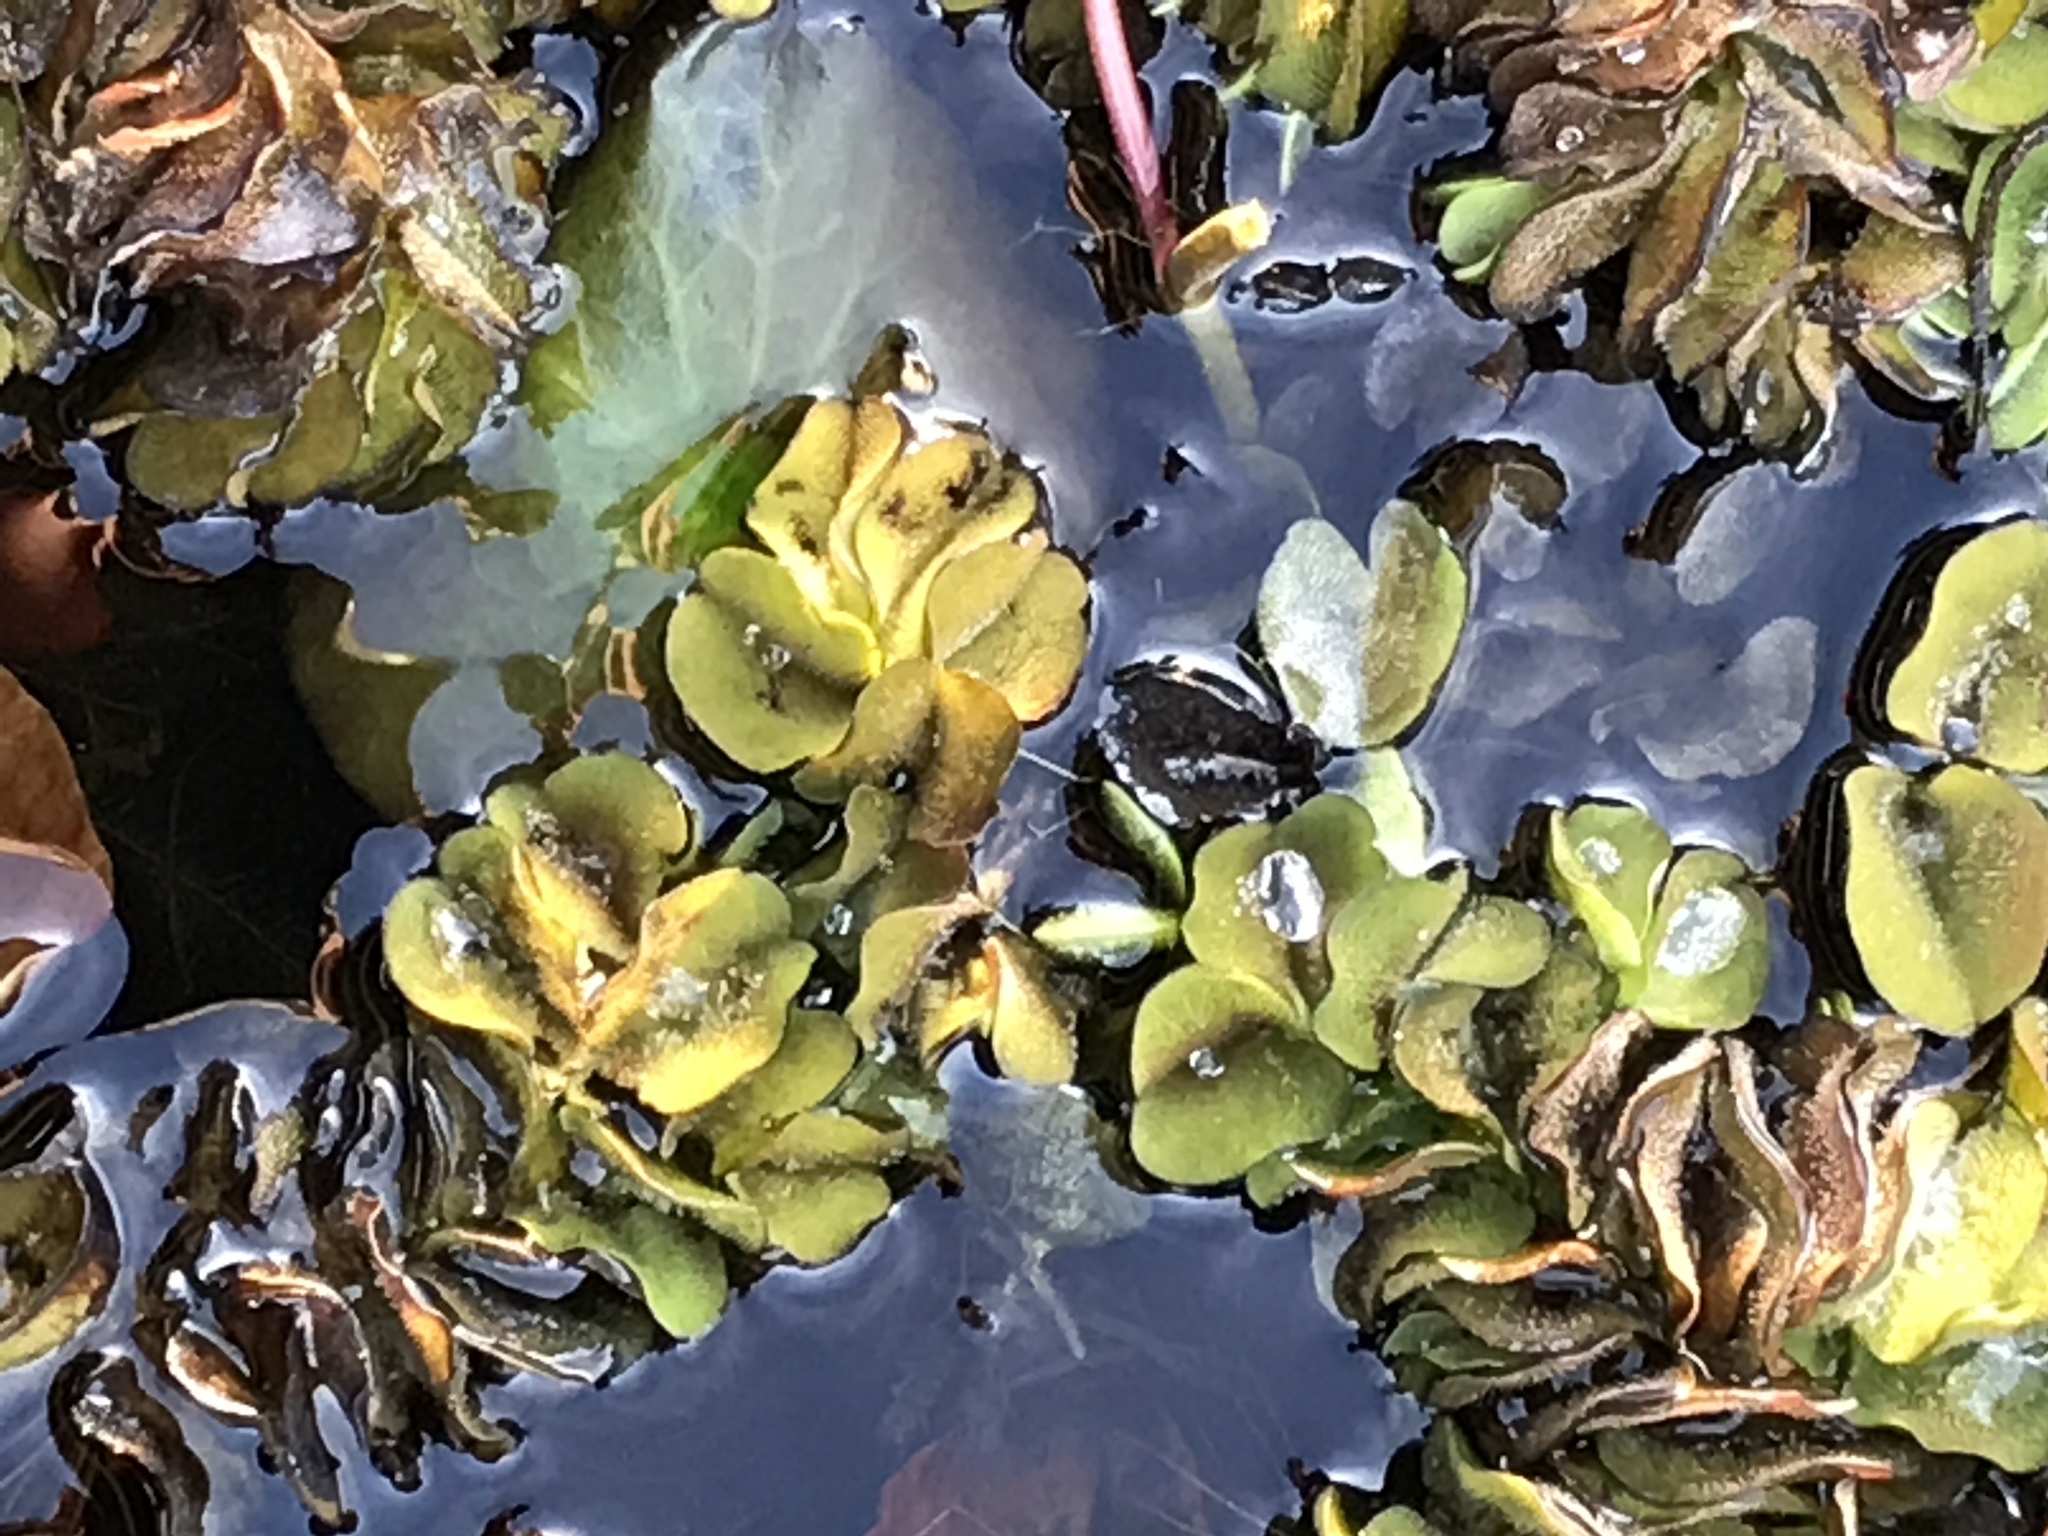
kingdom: Plantae
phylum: Tracheophyta
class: Polypodiopsida
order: Salviniales
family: Salviniaceae
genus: Salvinia
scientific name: Salvinia molesta
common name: Kariba weed
